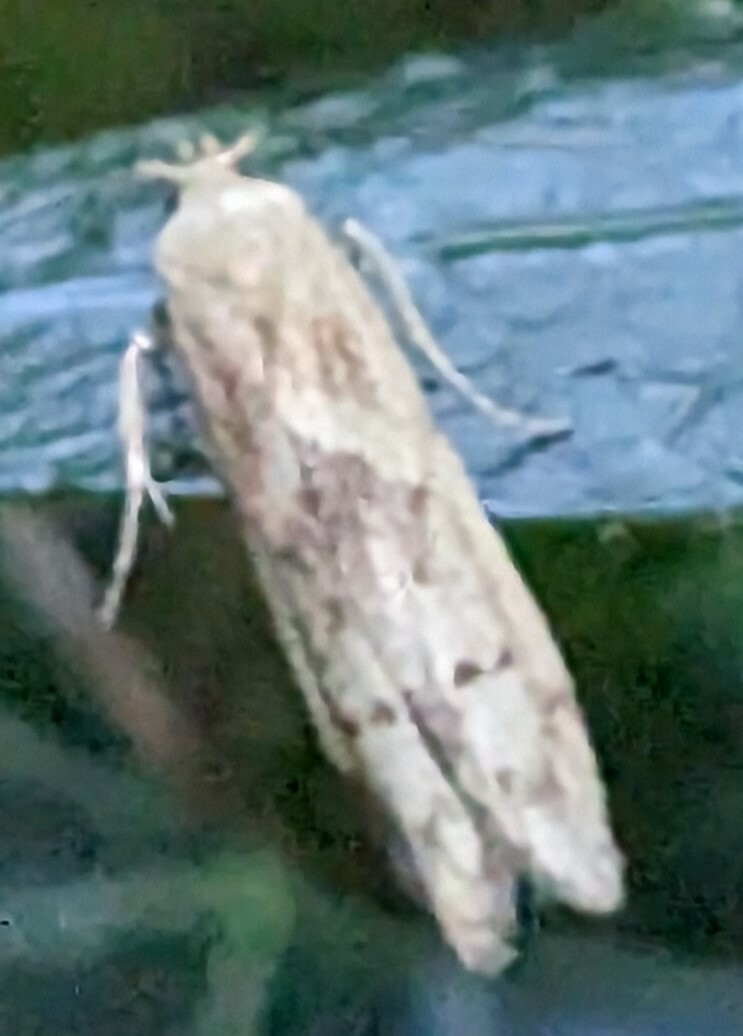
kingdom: Animalia
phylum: Arthropoda
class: Insecta
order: Lepidoptera
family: Blastobasidae
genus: Blastobasis
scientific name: Blastobasis lacticolella
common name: London dowd
